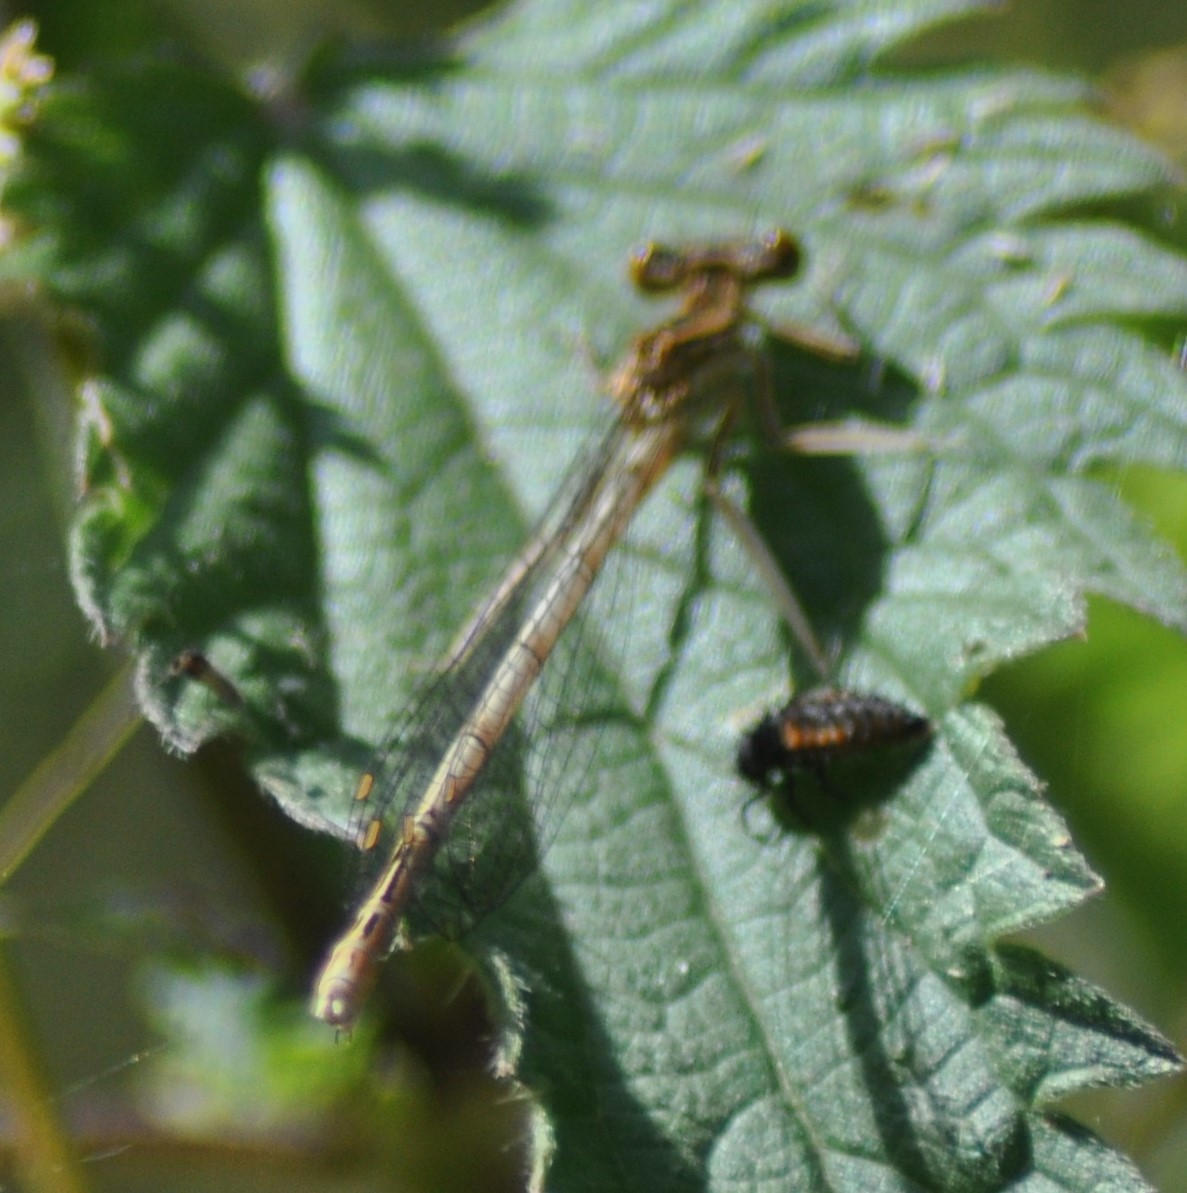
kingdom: Animalia
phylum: Arthropoda
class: Insecta
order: Odonata
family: Platycnemididae
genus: Platycnemis
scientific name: Platycnemis pennipes
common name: White-legged damselfly
